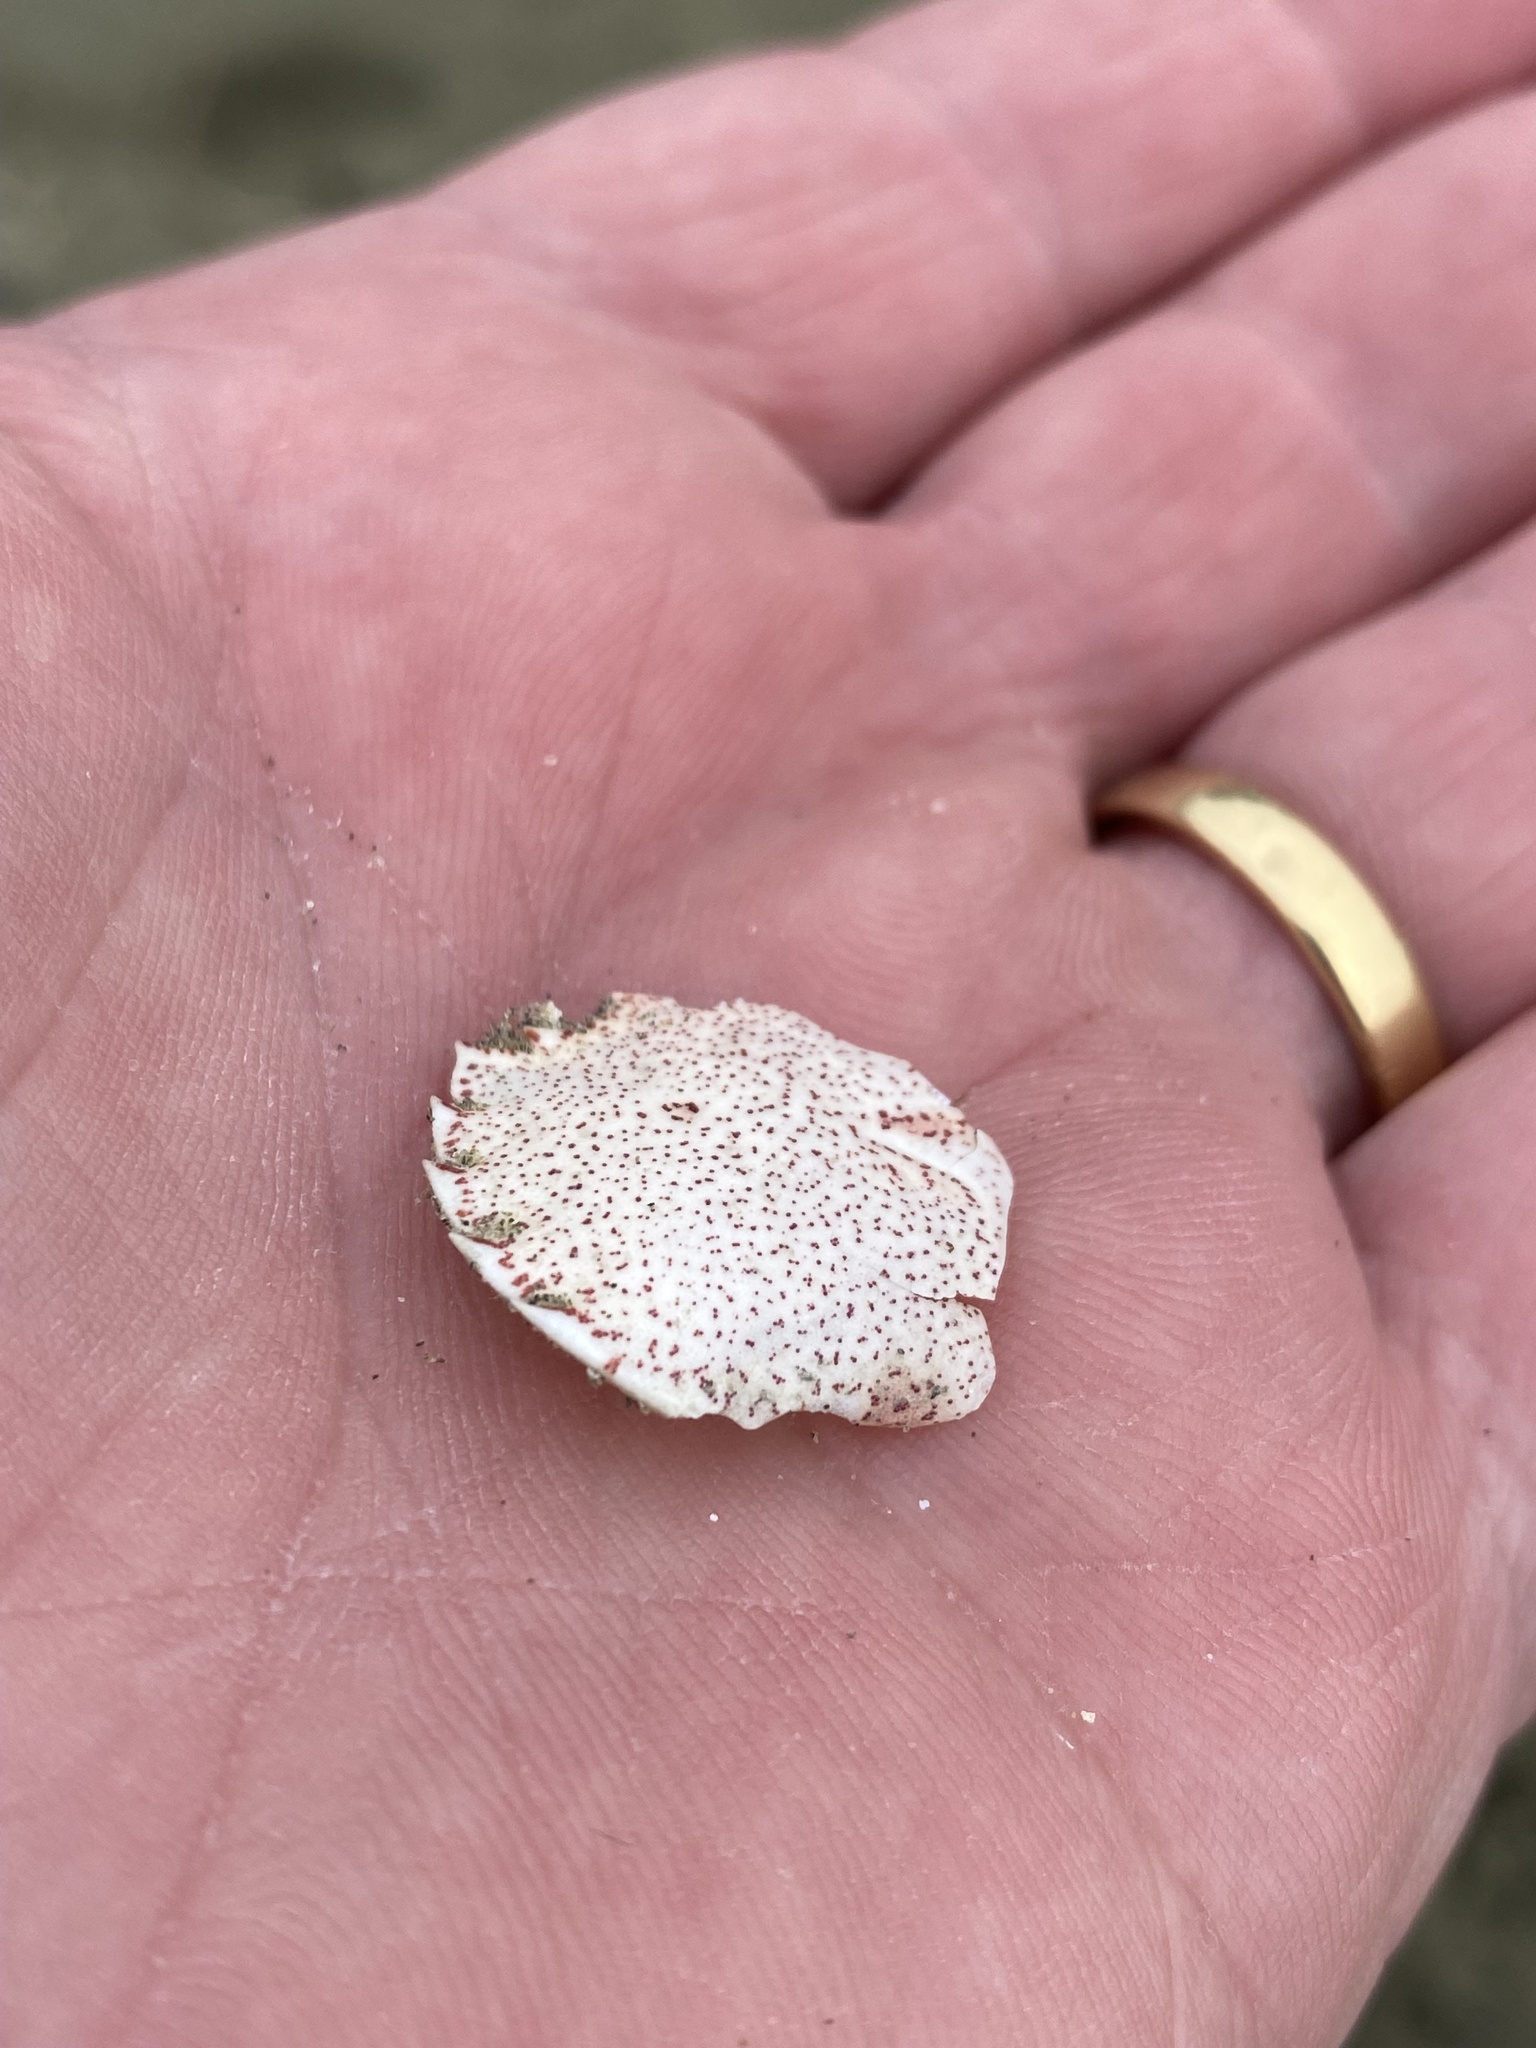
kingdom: Animalia
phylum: Arthropoda
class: Malacostraca
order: Decapoda
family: Ovalipidae
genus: Ovalipes
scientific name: Ovalipes catharus
